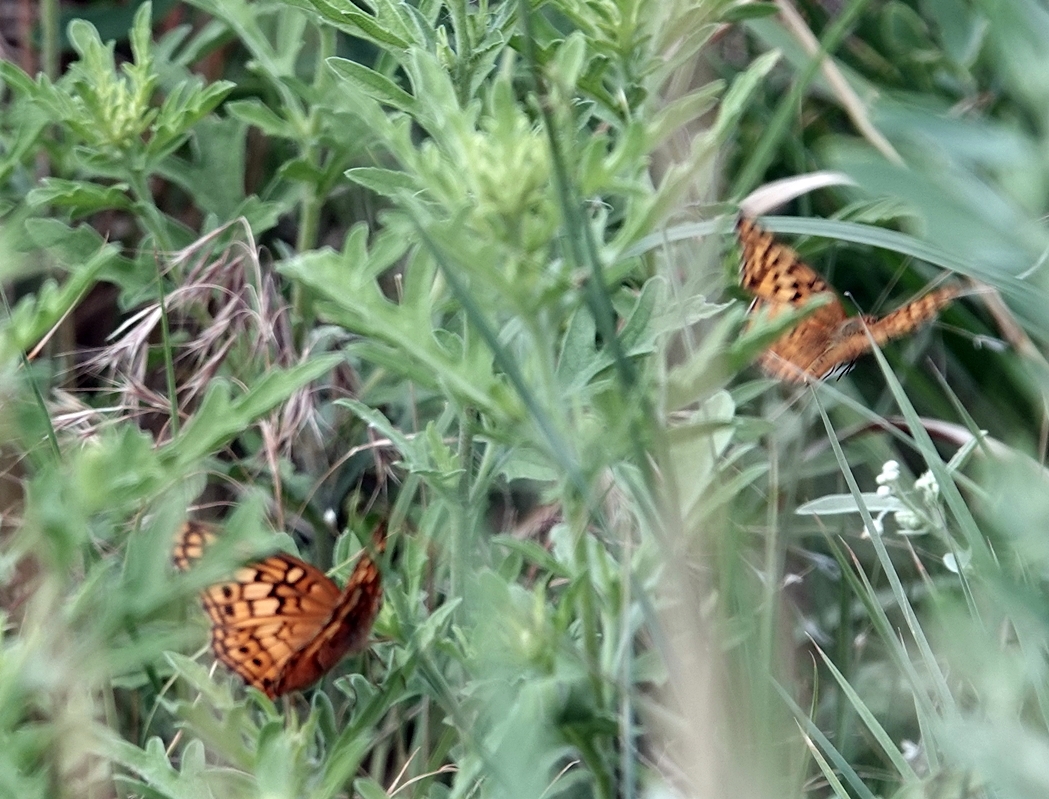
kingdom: Animalia
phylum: Arthropoda
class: Insecta
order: Lepidoptera
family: Nymphalidae
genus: Euptoieta
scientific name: Euptoieta claudia
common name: Variegated fritillary
